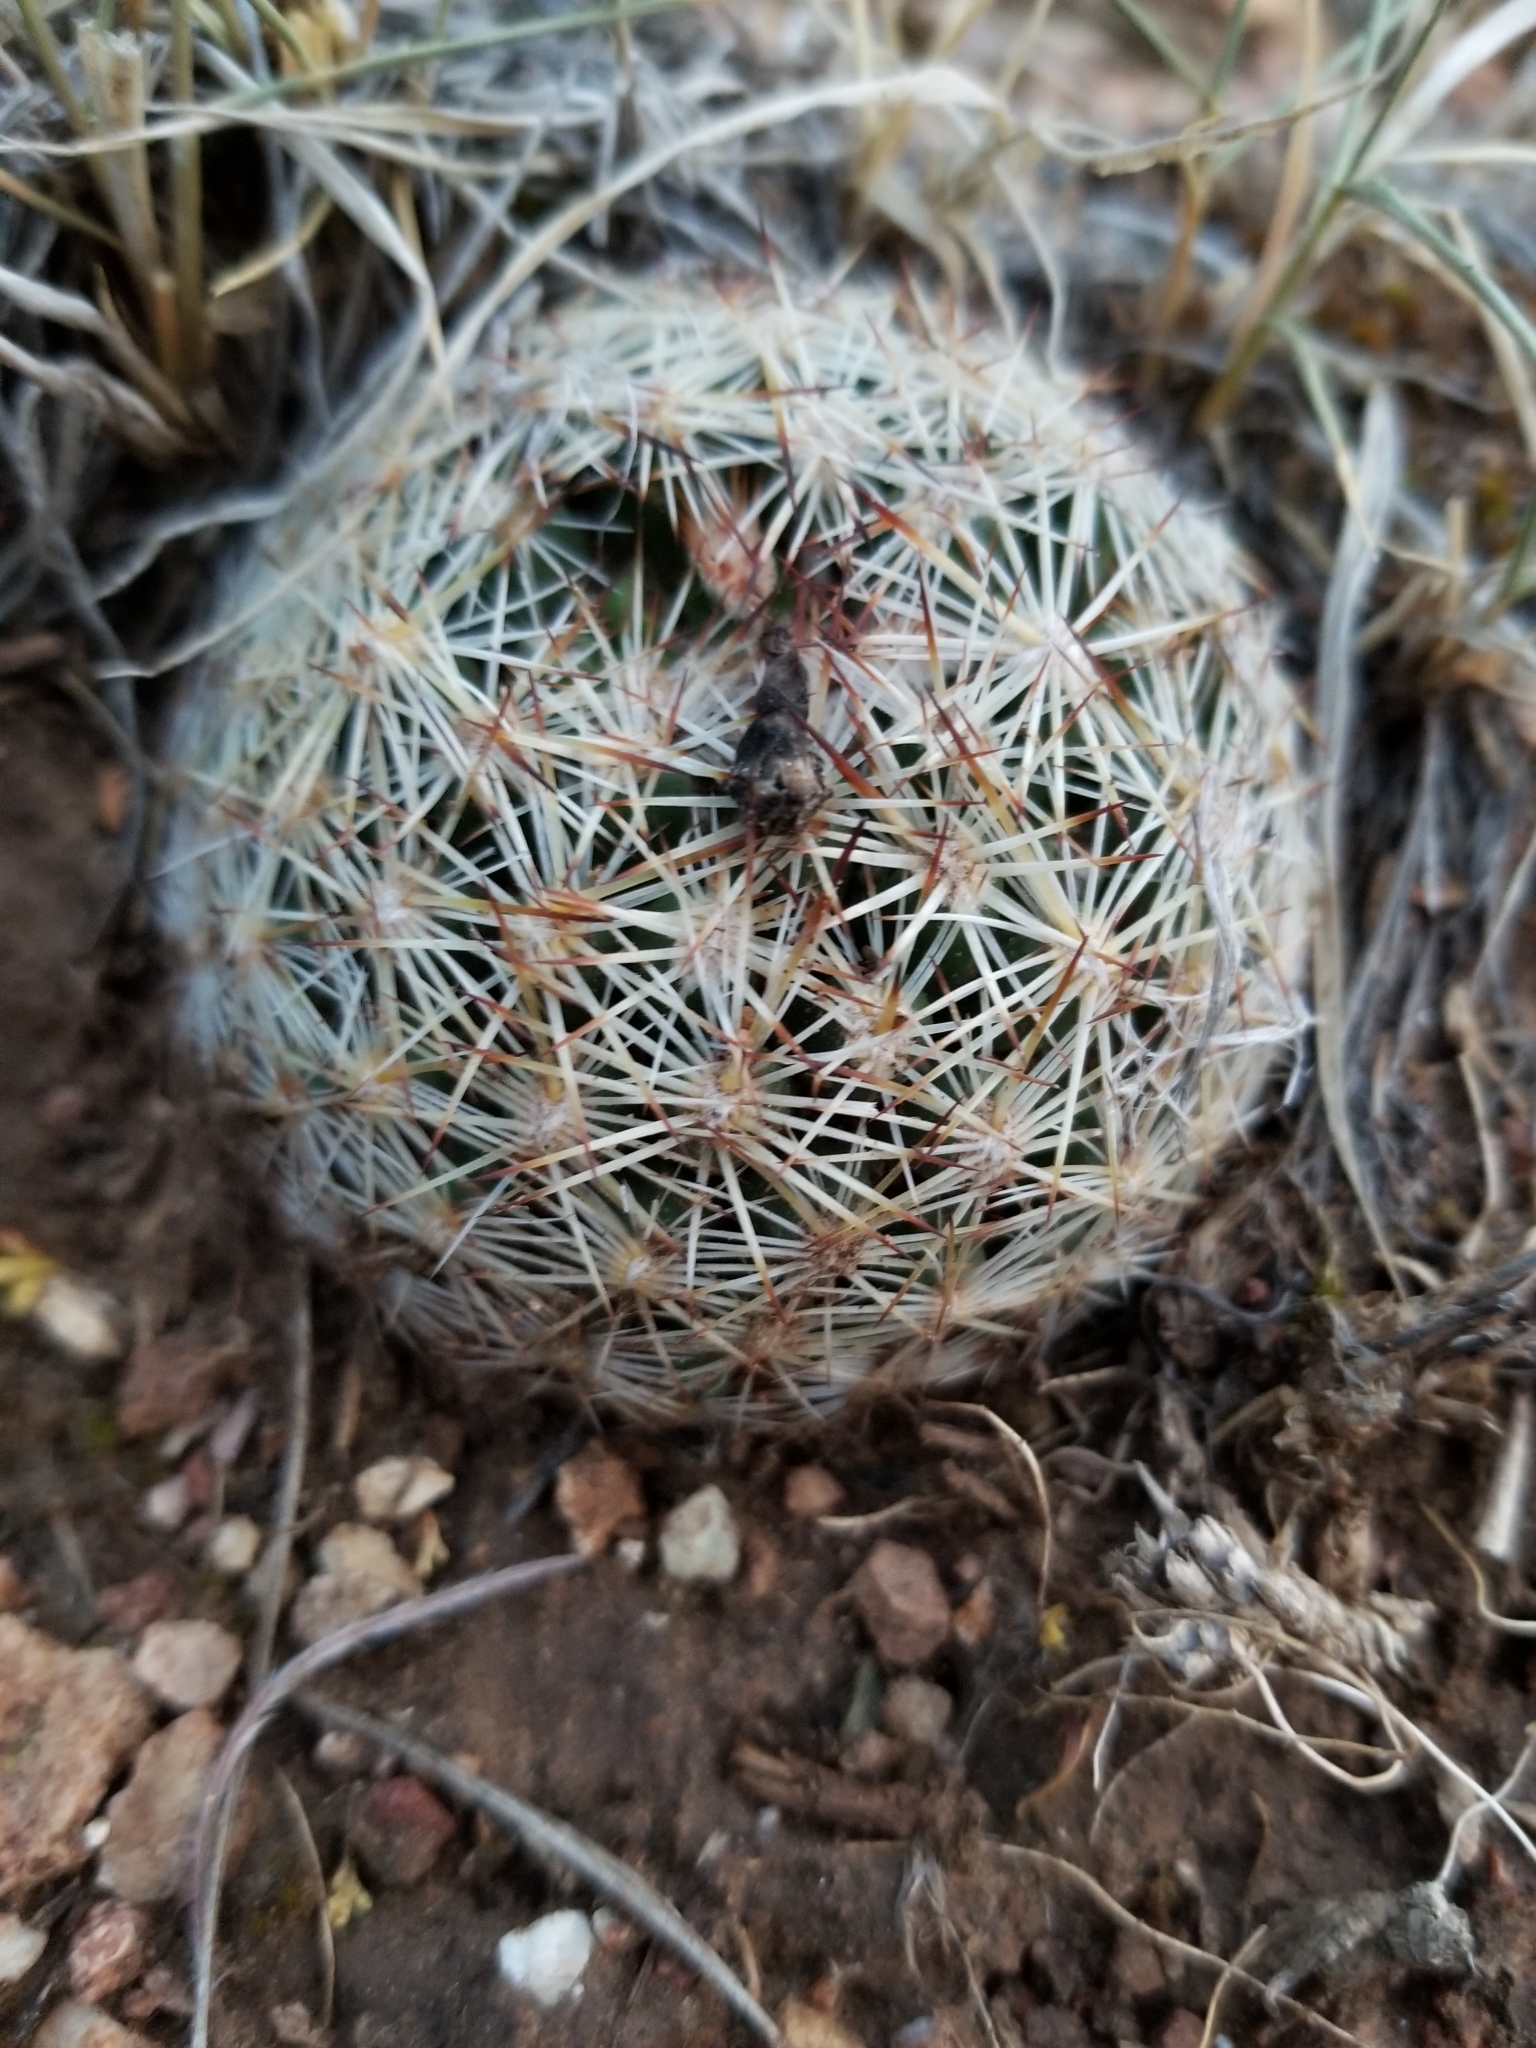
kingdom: Plantae
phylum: Tracheophyta
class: Magnoliopsida
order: Caryophyllales
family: Cactaceae
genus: Pelecyphora
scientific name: Pelecyphora vivipara
